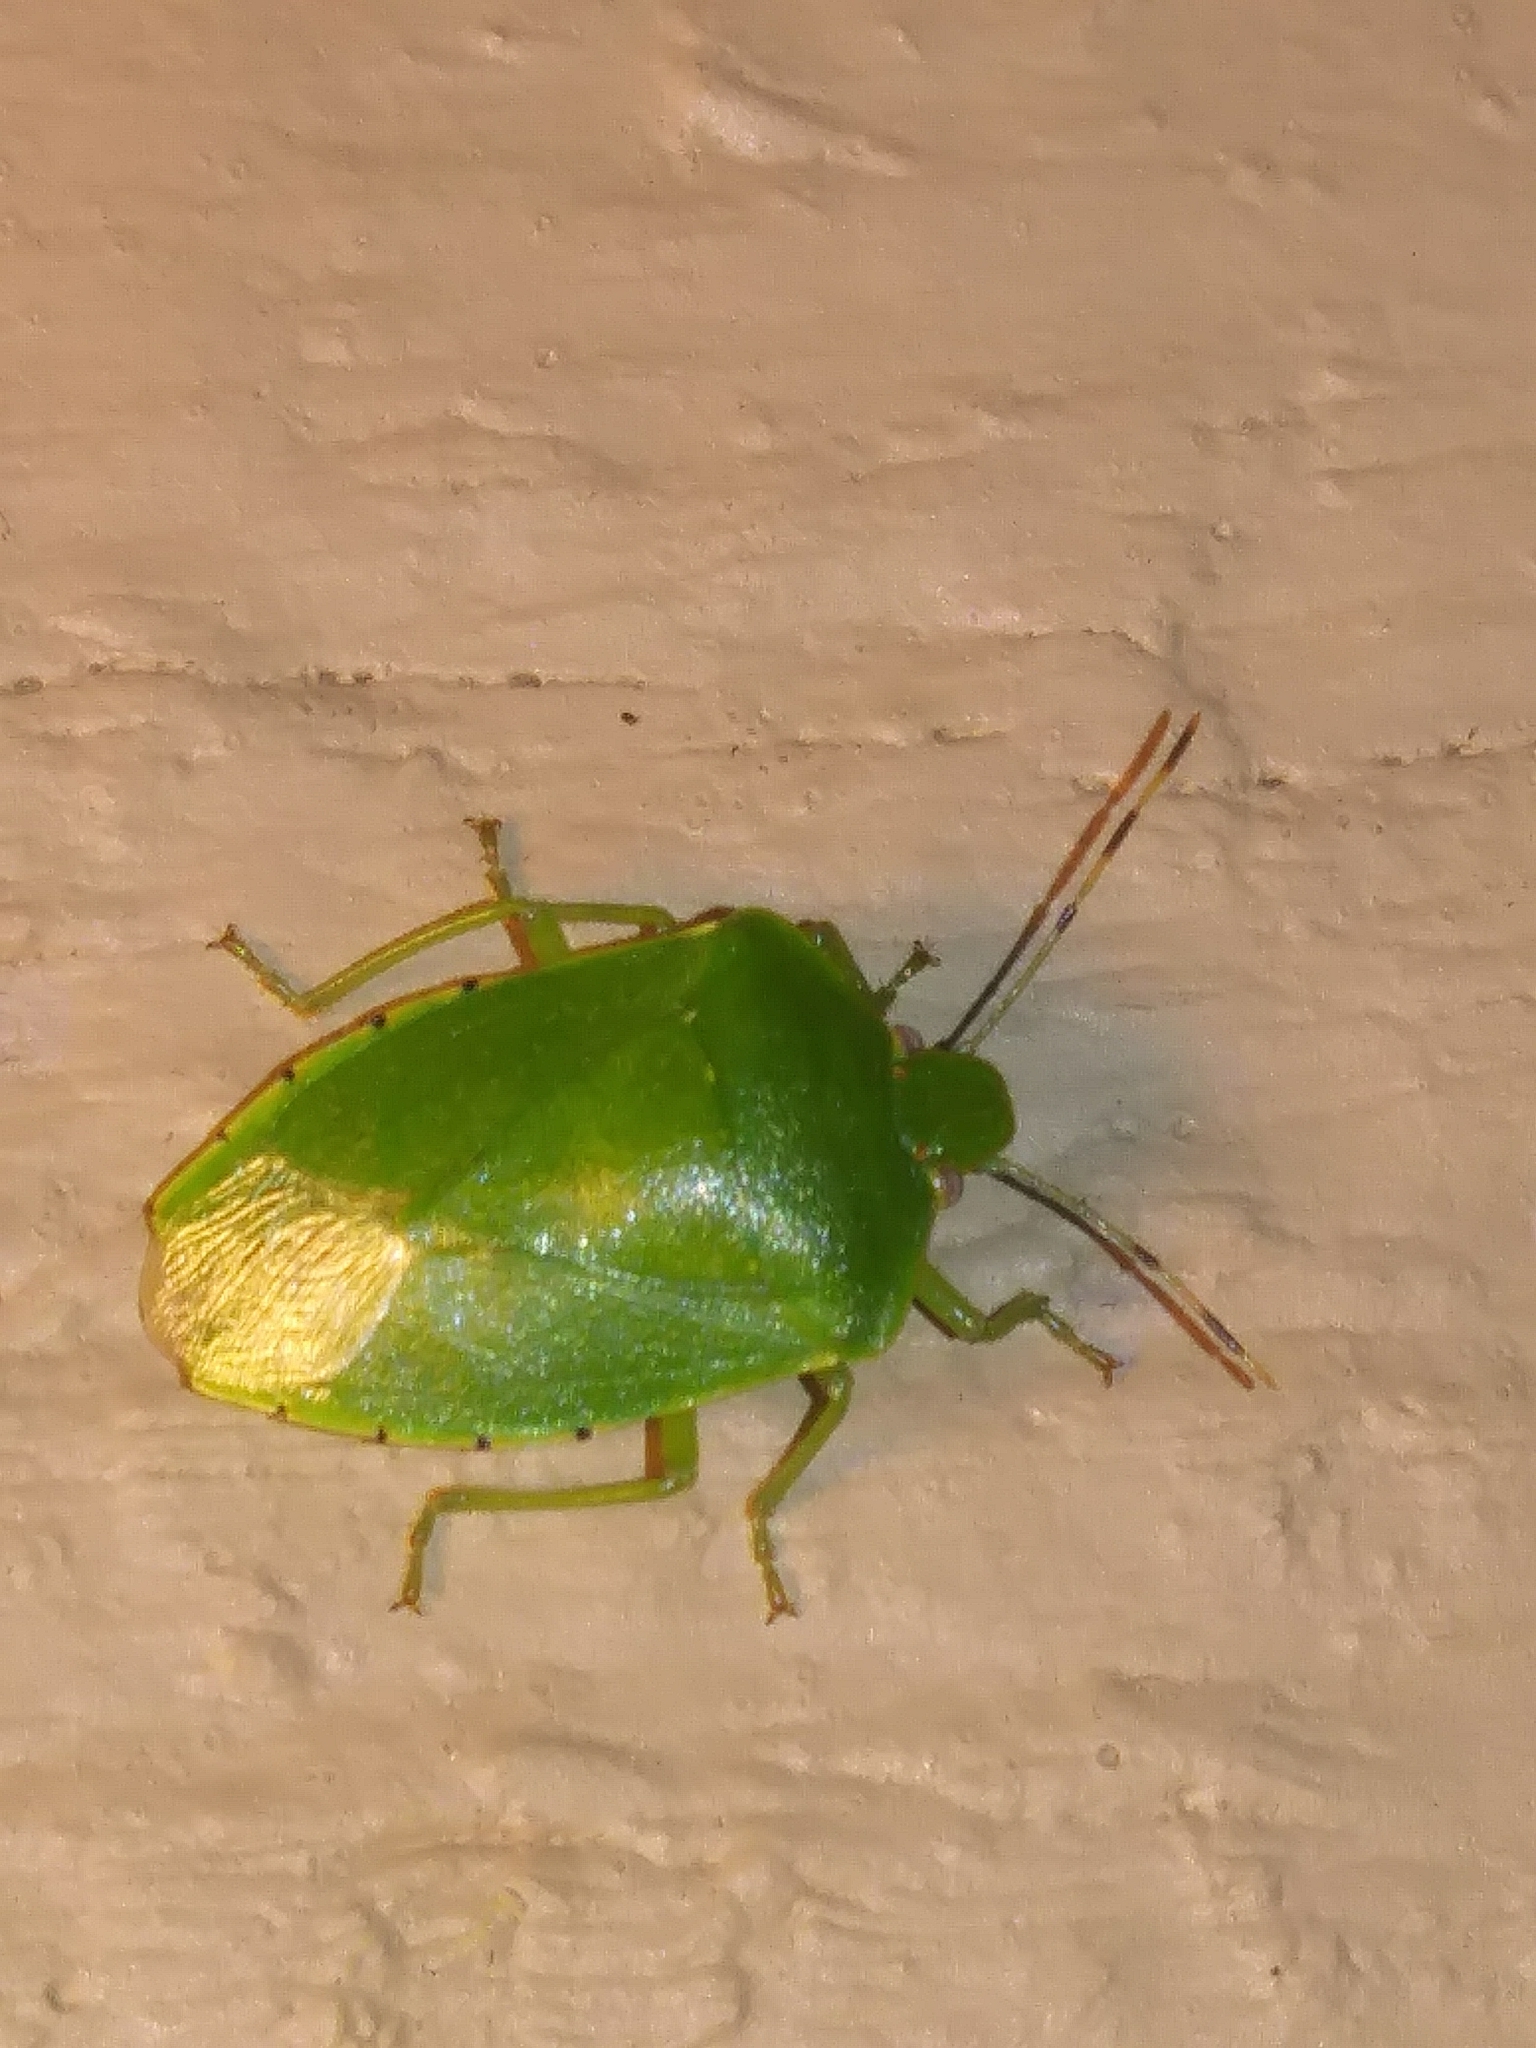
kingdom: Animalia
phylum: Arthropoda
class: Insecta
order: Hemiptera
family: Pentatomidae
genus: Chinavia
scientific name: Chinavia hilaris
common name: Green stink bug
